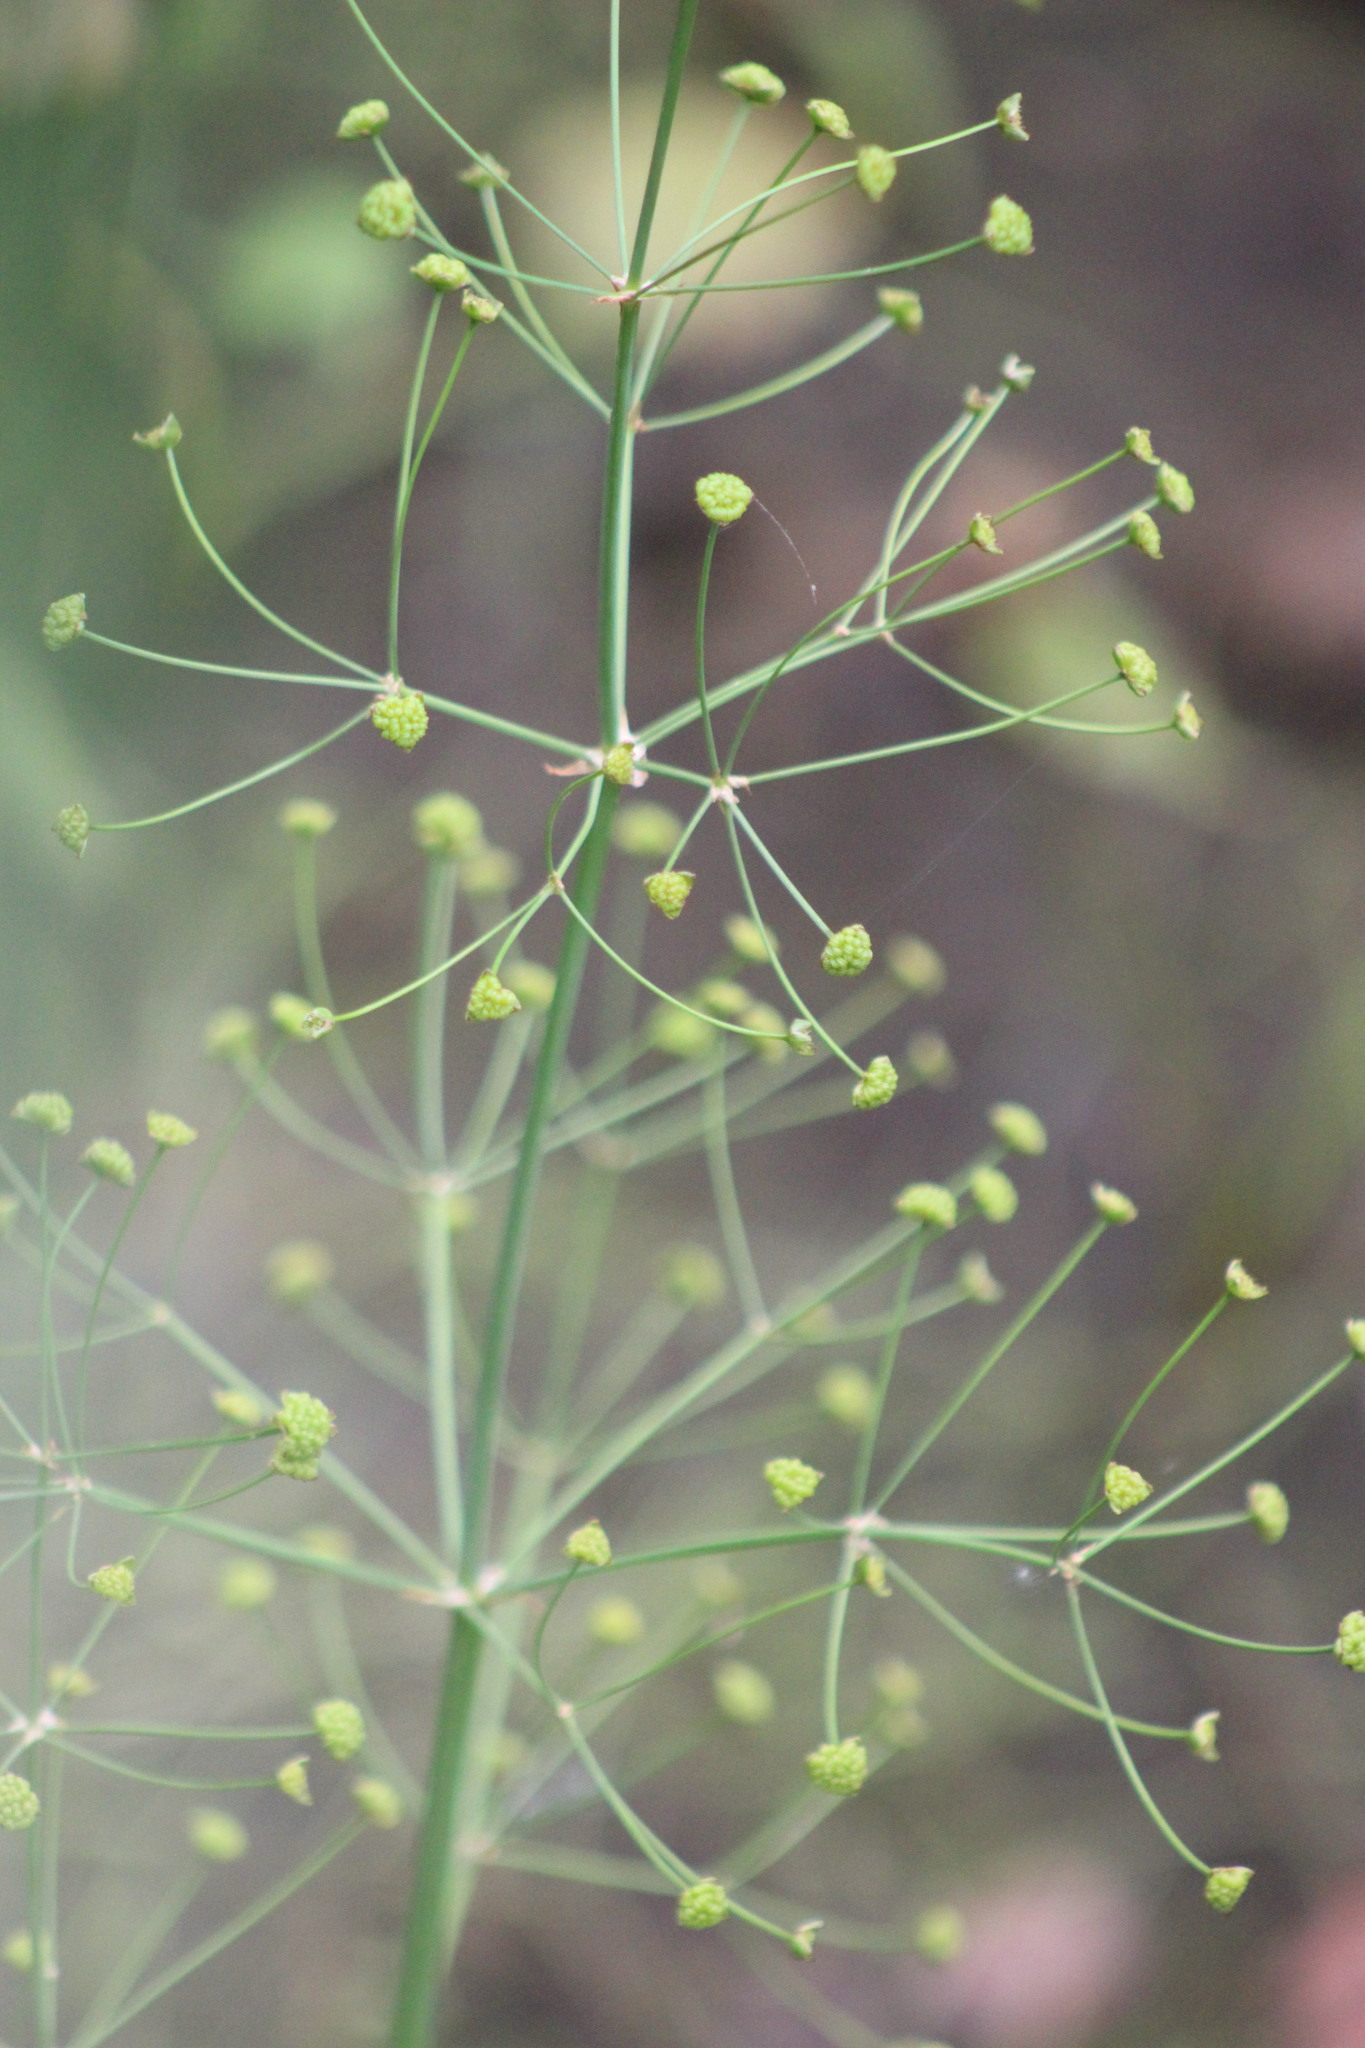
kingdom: Plantae
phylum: Tracheophyta
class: Liliopsida
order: Alismatales
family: Alismataceae
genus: Alisma
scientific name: Alisma plantago-aquatica
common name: Water-plantain
